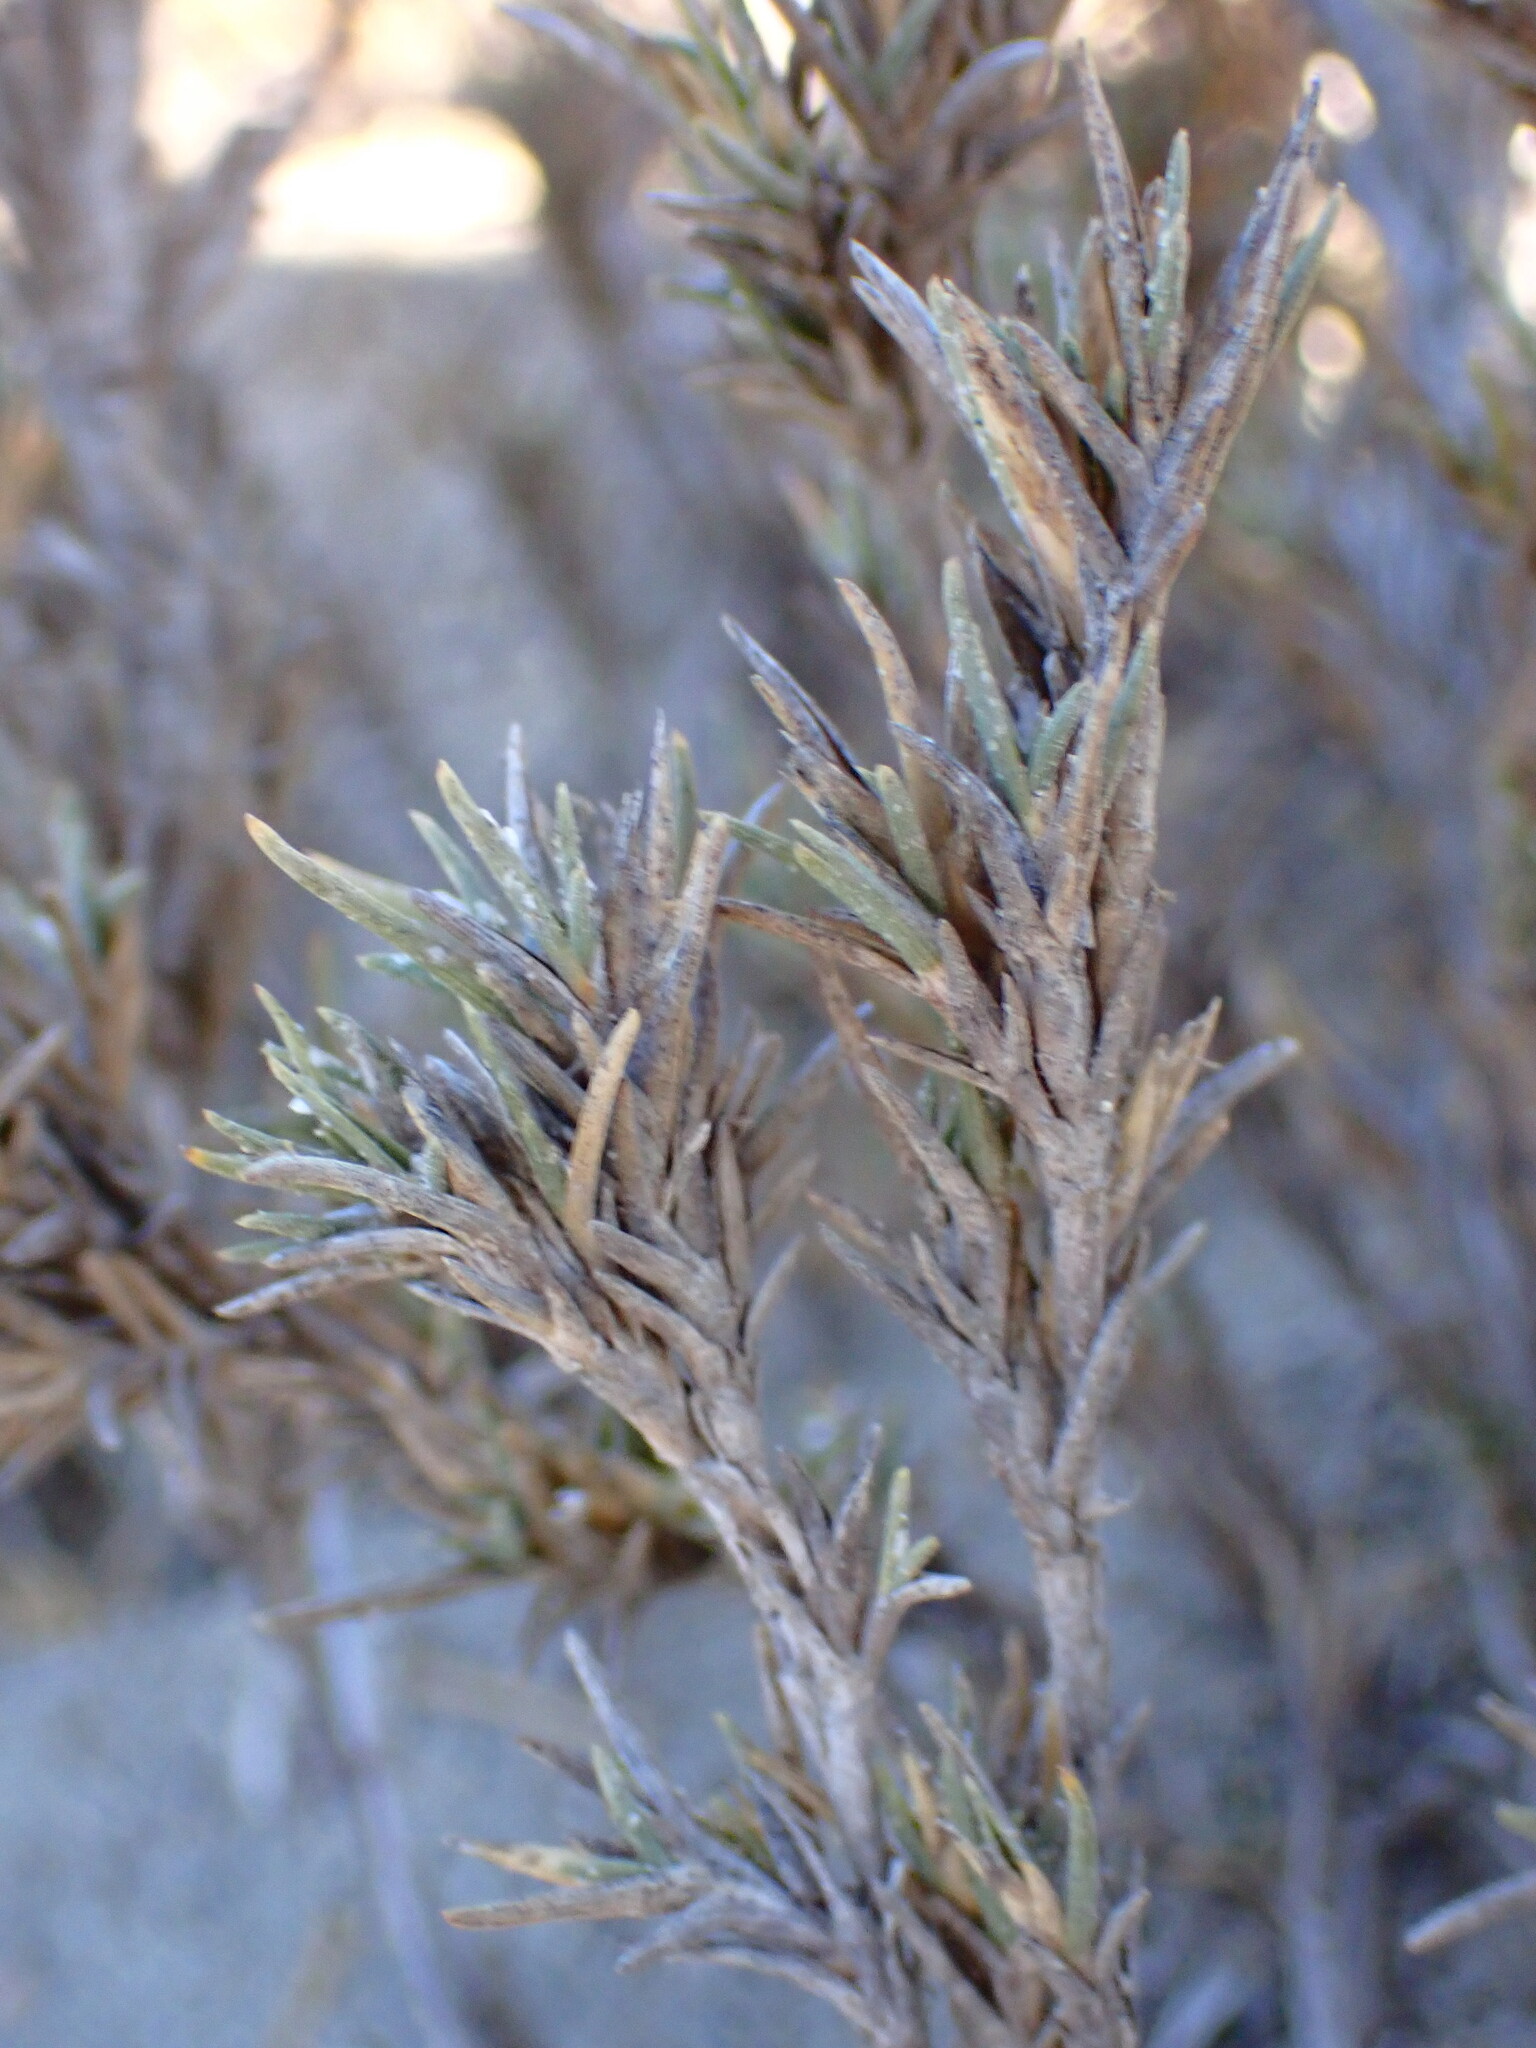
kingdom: Plantae
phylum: Tracheophyta
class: Liliopsida
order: Poales
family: Poaceae
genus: Distichlis
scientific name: Distichlis littoralis
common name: Shore grass
